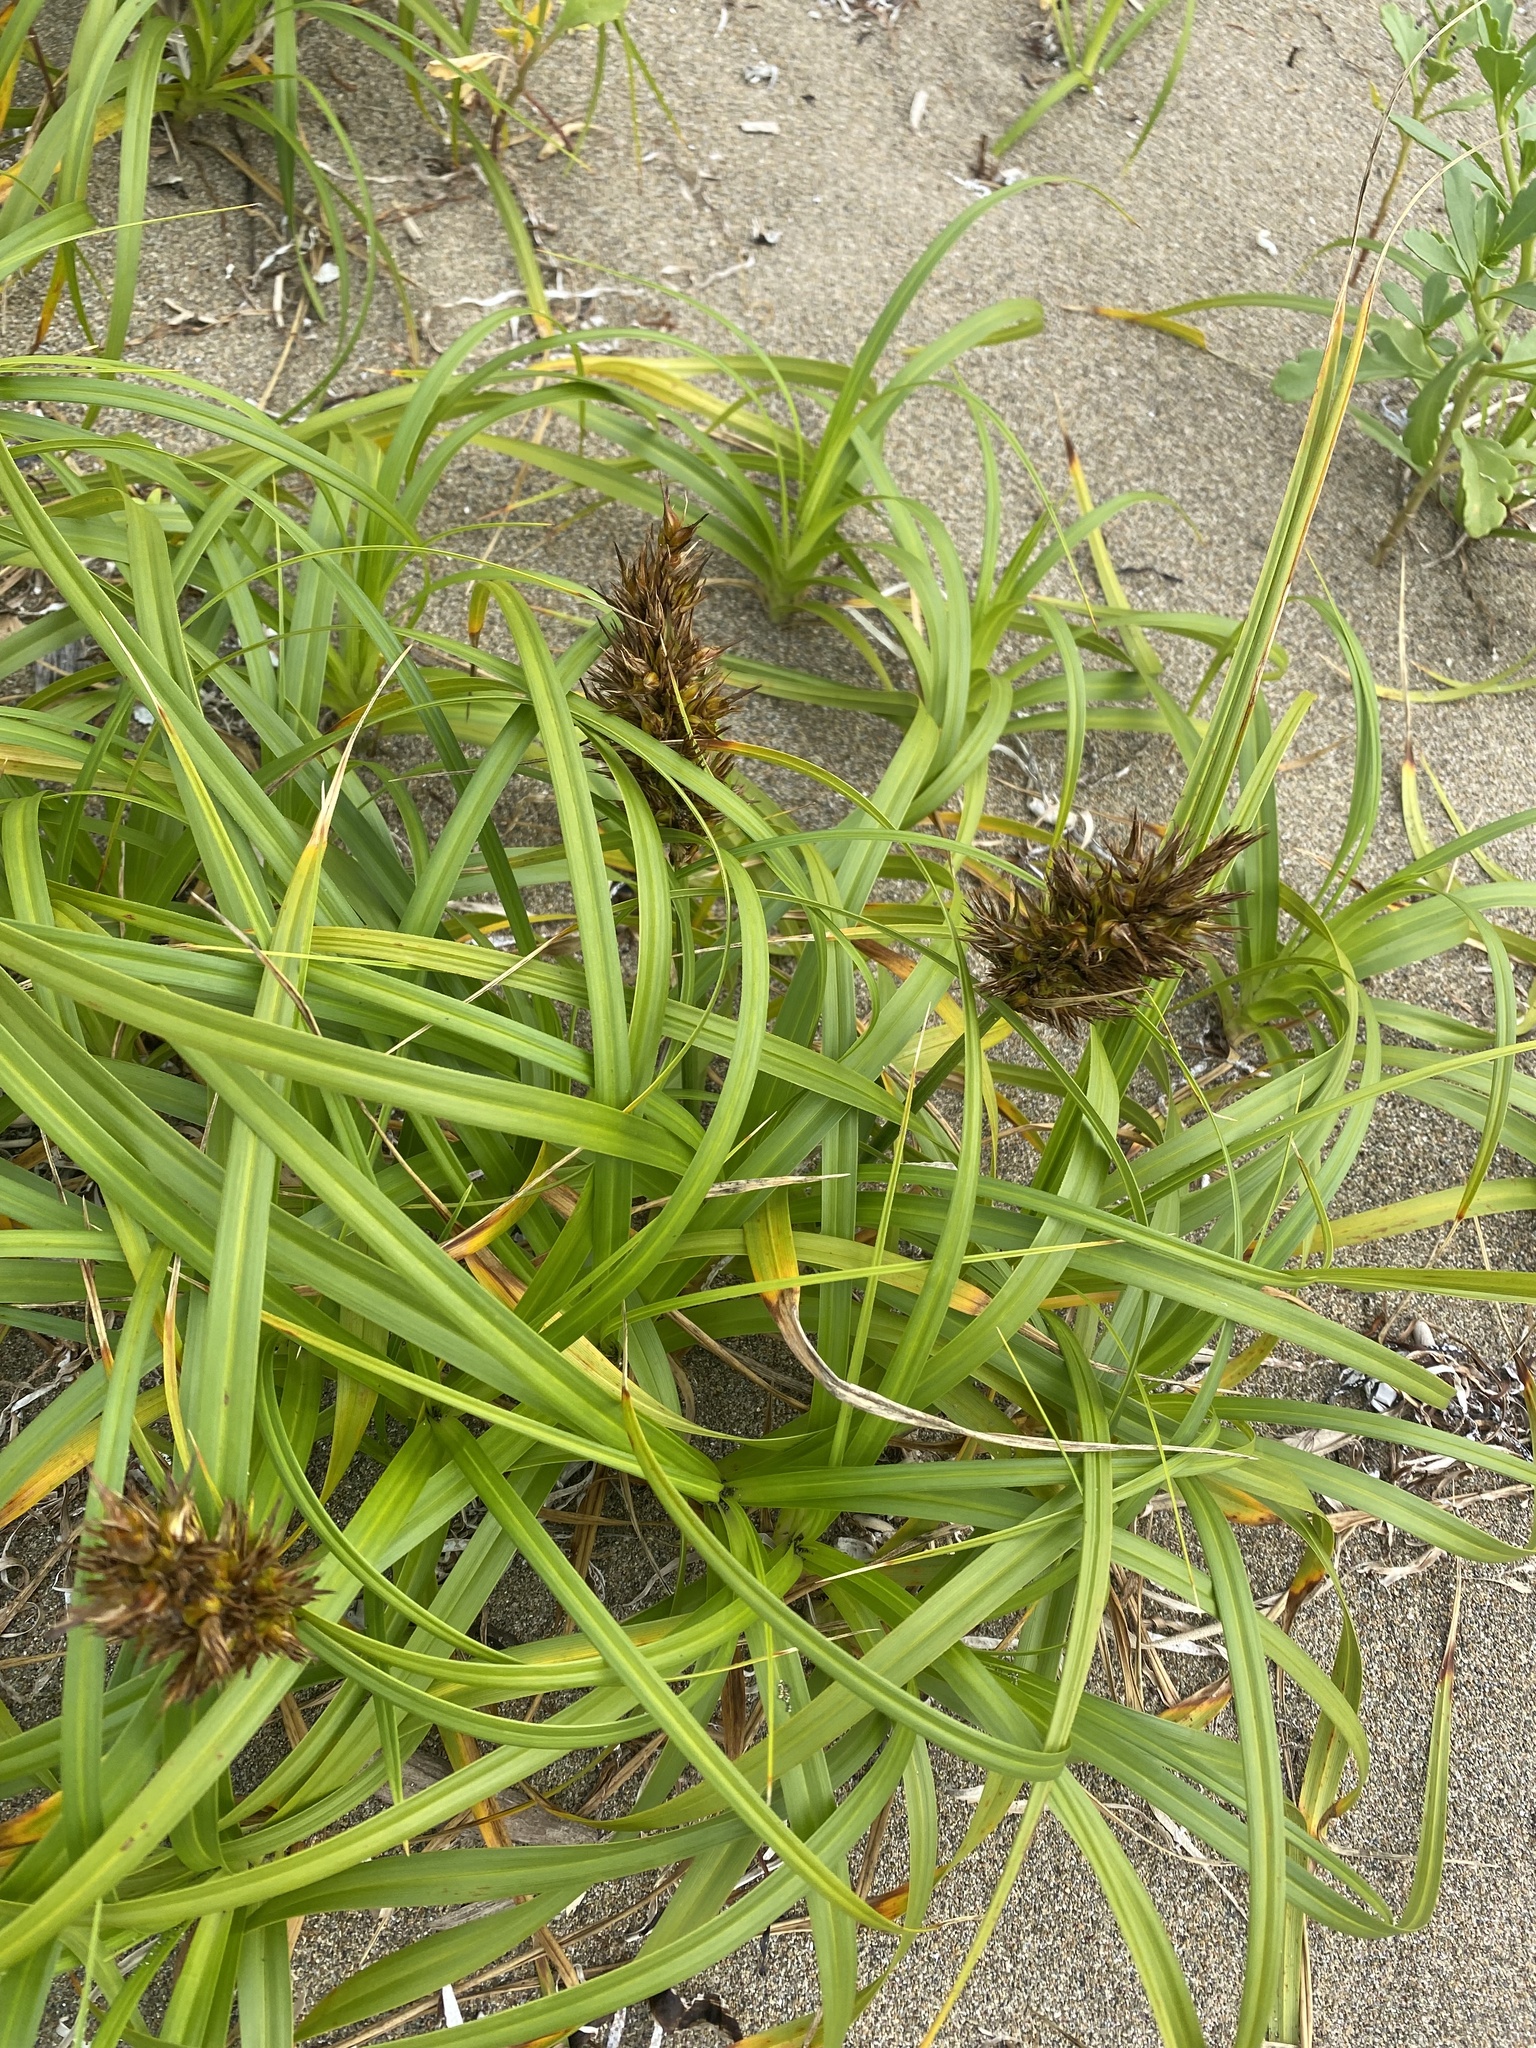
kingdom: Plantae
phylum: Tracheophyta
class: Liliopsida
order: Poales
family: Cyperaceae
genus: Carex
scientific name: Carex macrocephala
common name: Large-head sedge
